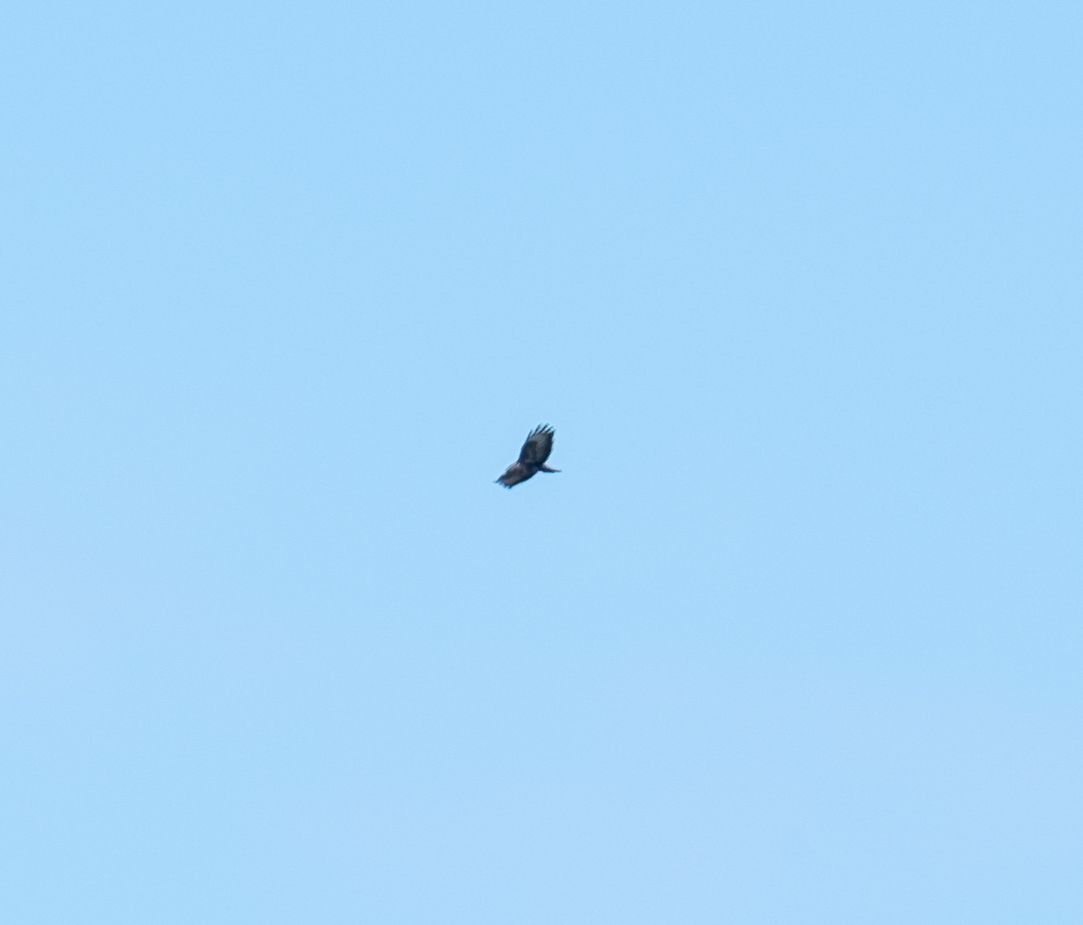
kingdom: Animalia
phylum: Chordata
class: Aves
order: Accipitriformes
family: Accipitridae
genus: Buteo
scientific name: Buteo buteo
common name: Common buzzard
